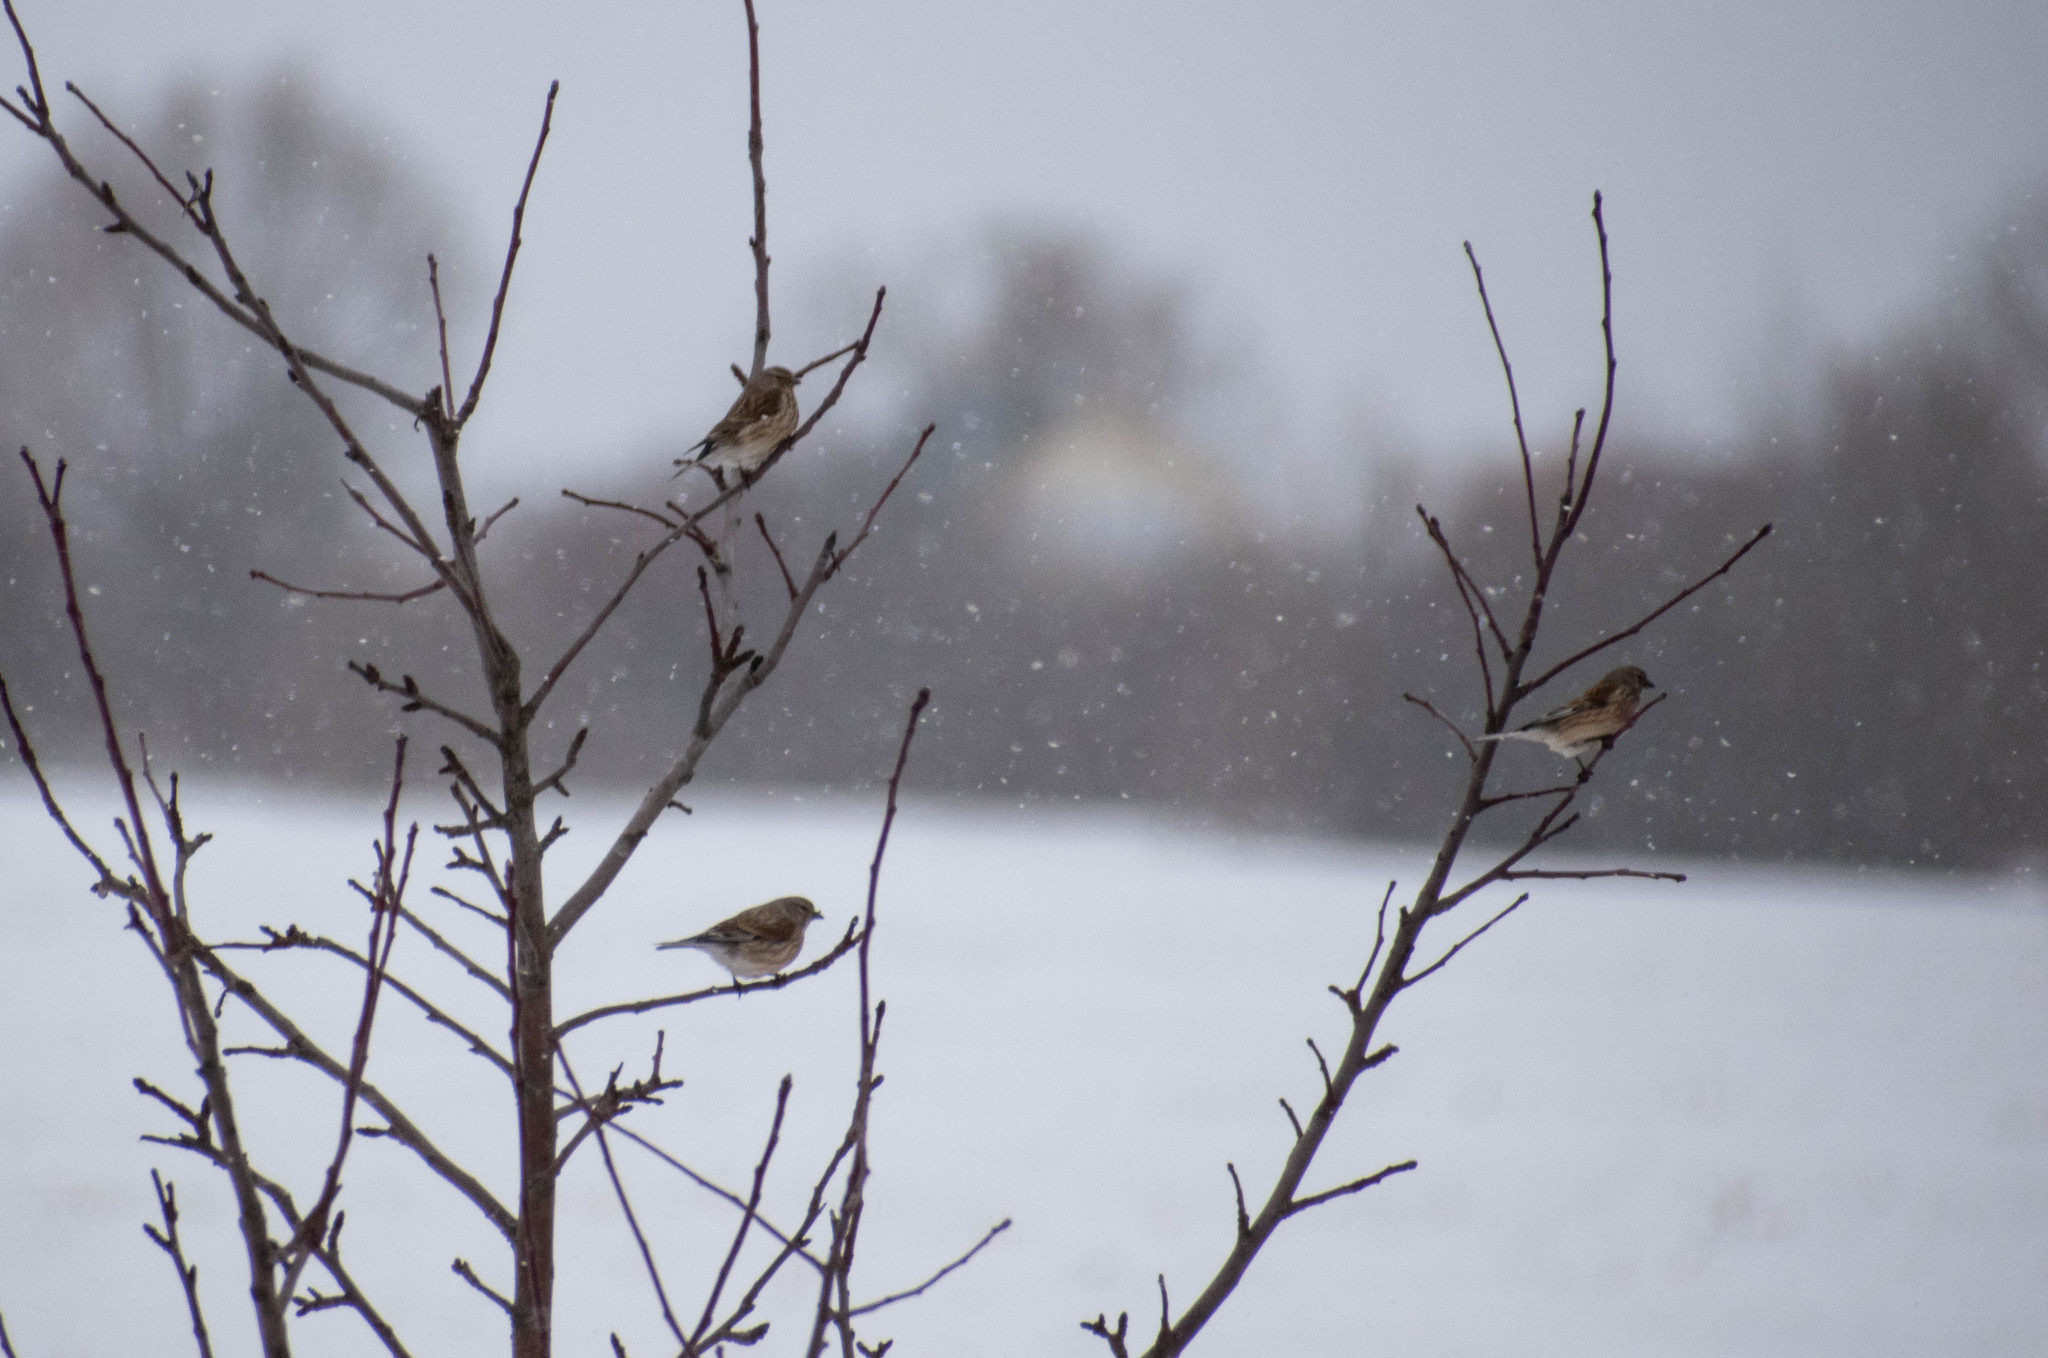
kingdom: Animalia
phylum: Chordata
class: Aves
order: Passeriformes
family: Fringillidae
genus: Linaria
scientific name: Linaria cannabina
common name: Common linnet
